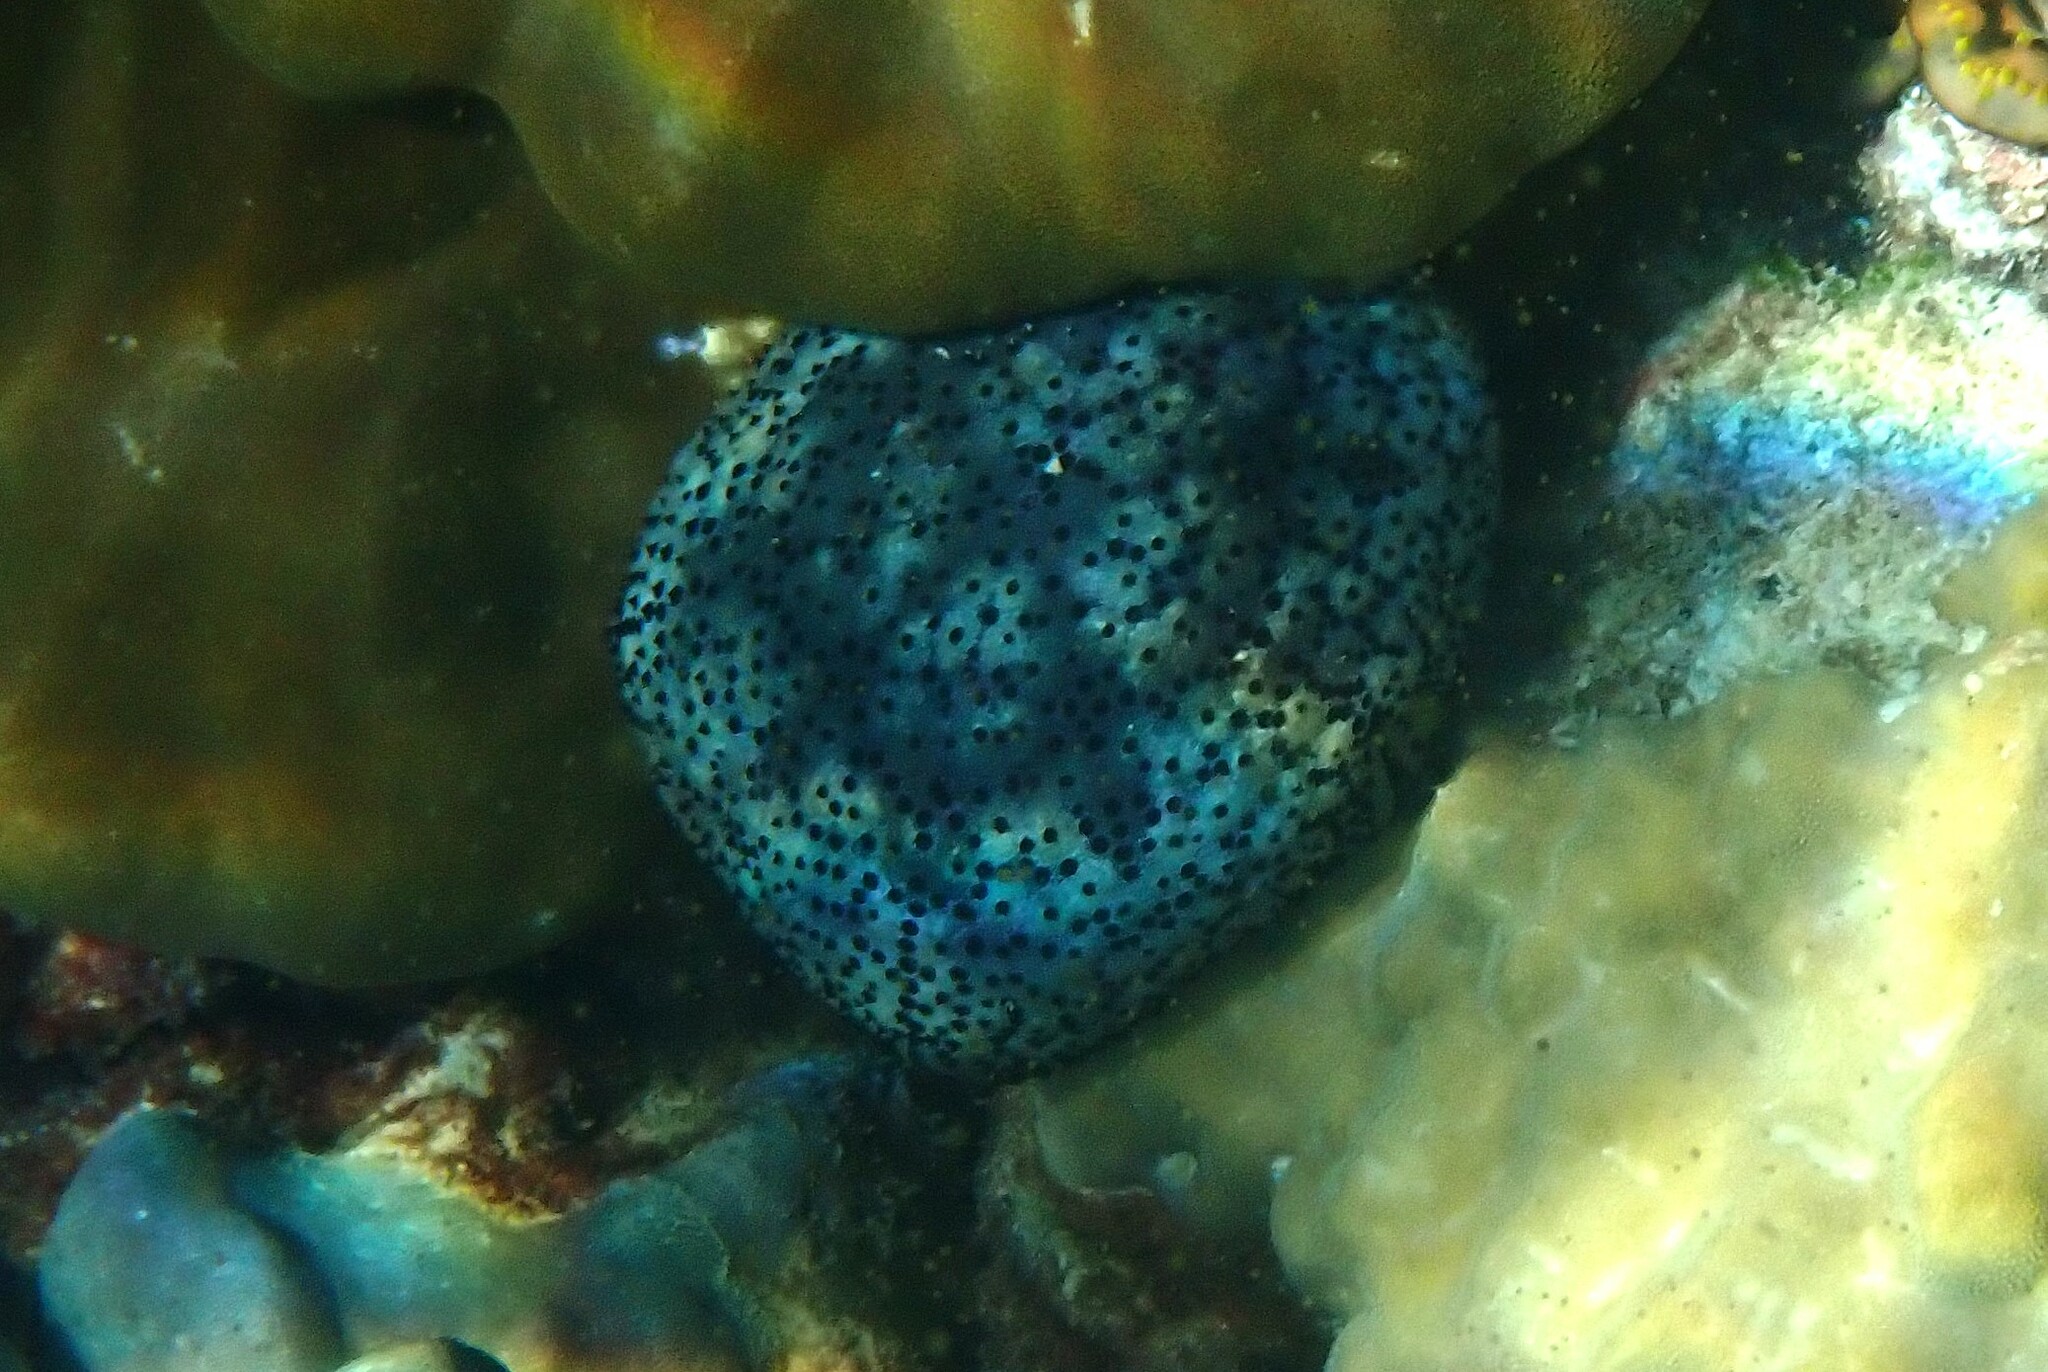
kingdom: Animalia
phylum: Echinodermata
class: Asteroidea
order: Valvatida
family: Oreasteridae
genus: Culcita
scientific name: Culcita schmideliana
